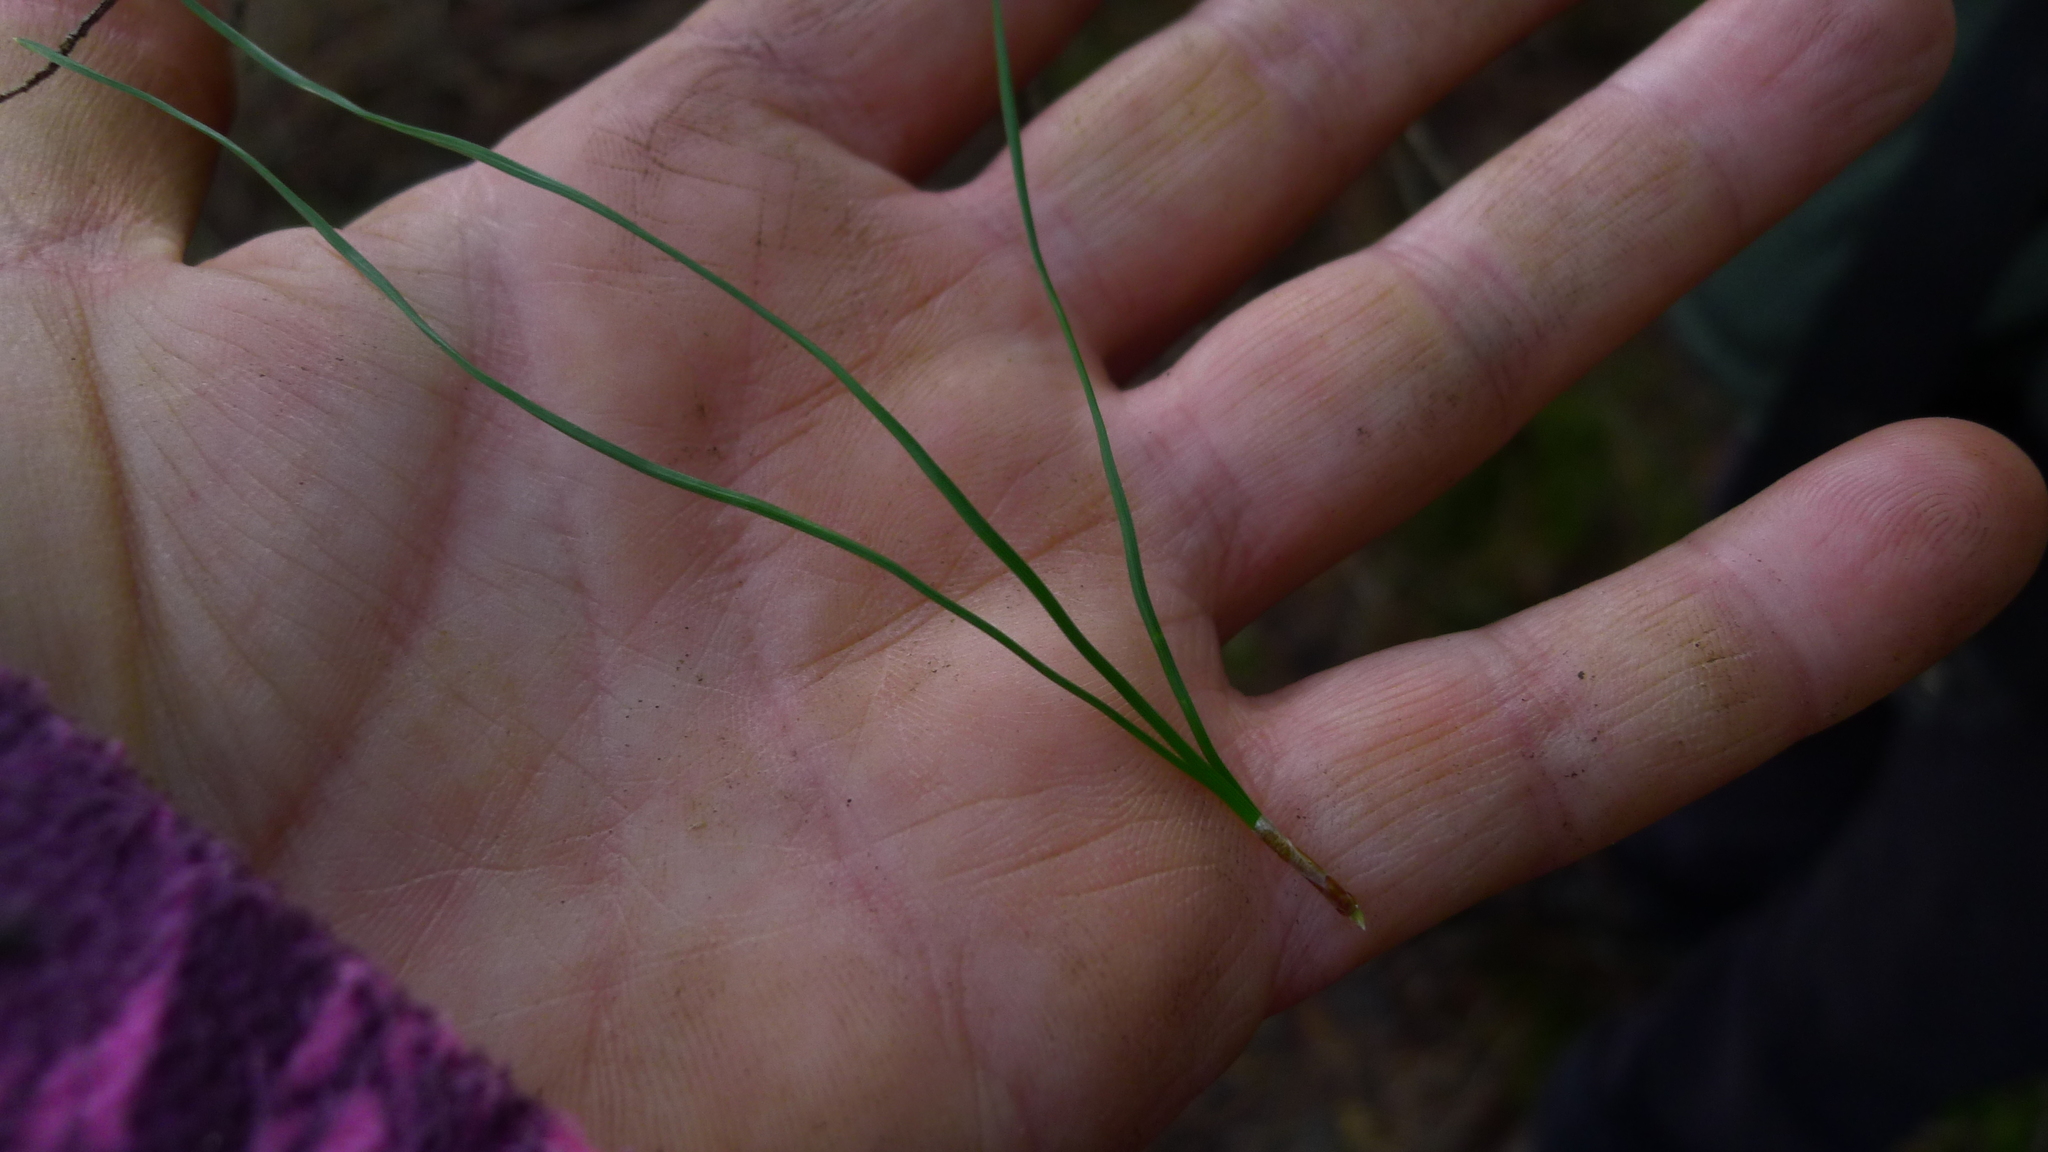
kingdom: Plantae
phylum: Tracheophyta
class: Pinopsida
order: Pinales
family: Pinaceae
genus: Pinus
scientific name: Pinus radiata
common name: Monterey pine
